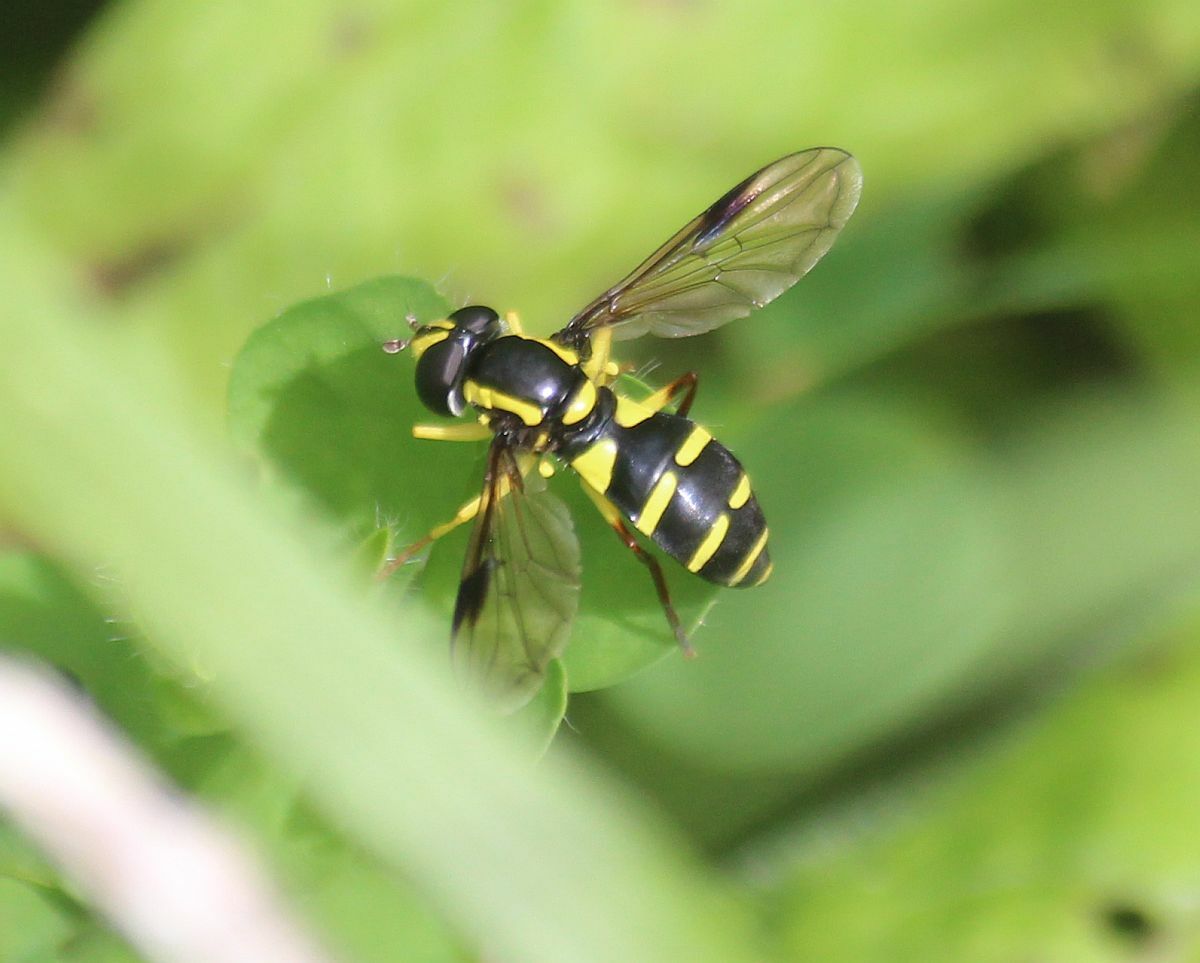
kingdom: Animalia
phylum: Arthropoda
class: Insecta
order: Diptera
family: Syrphidae
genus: Philhelius
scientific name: Philhelius pedissequum
